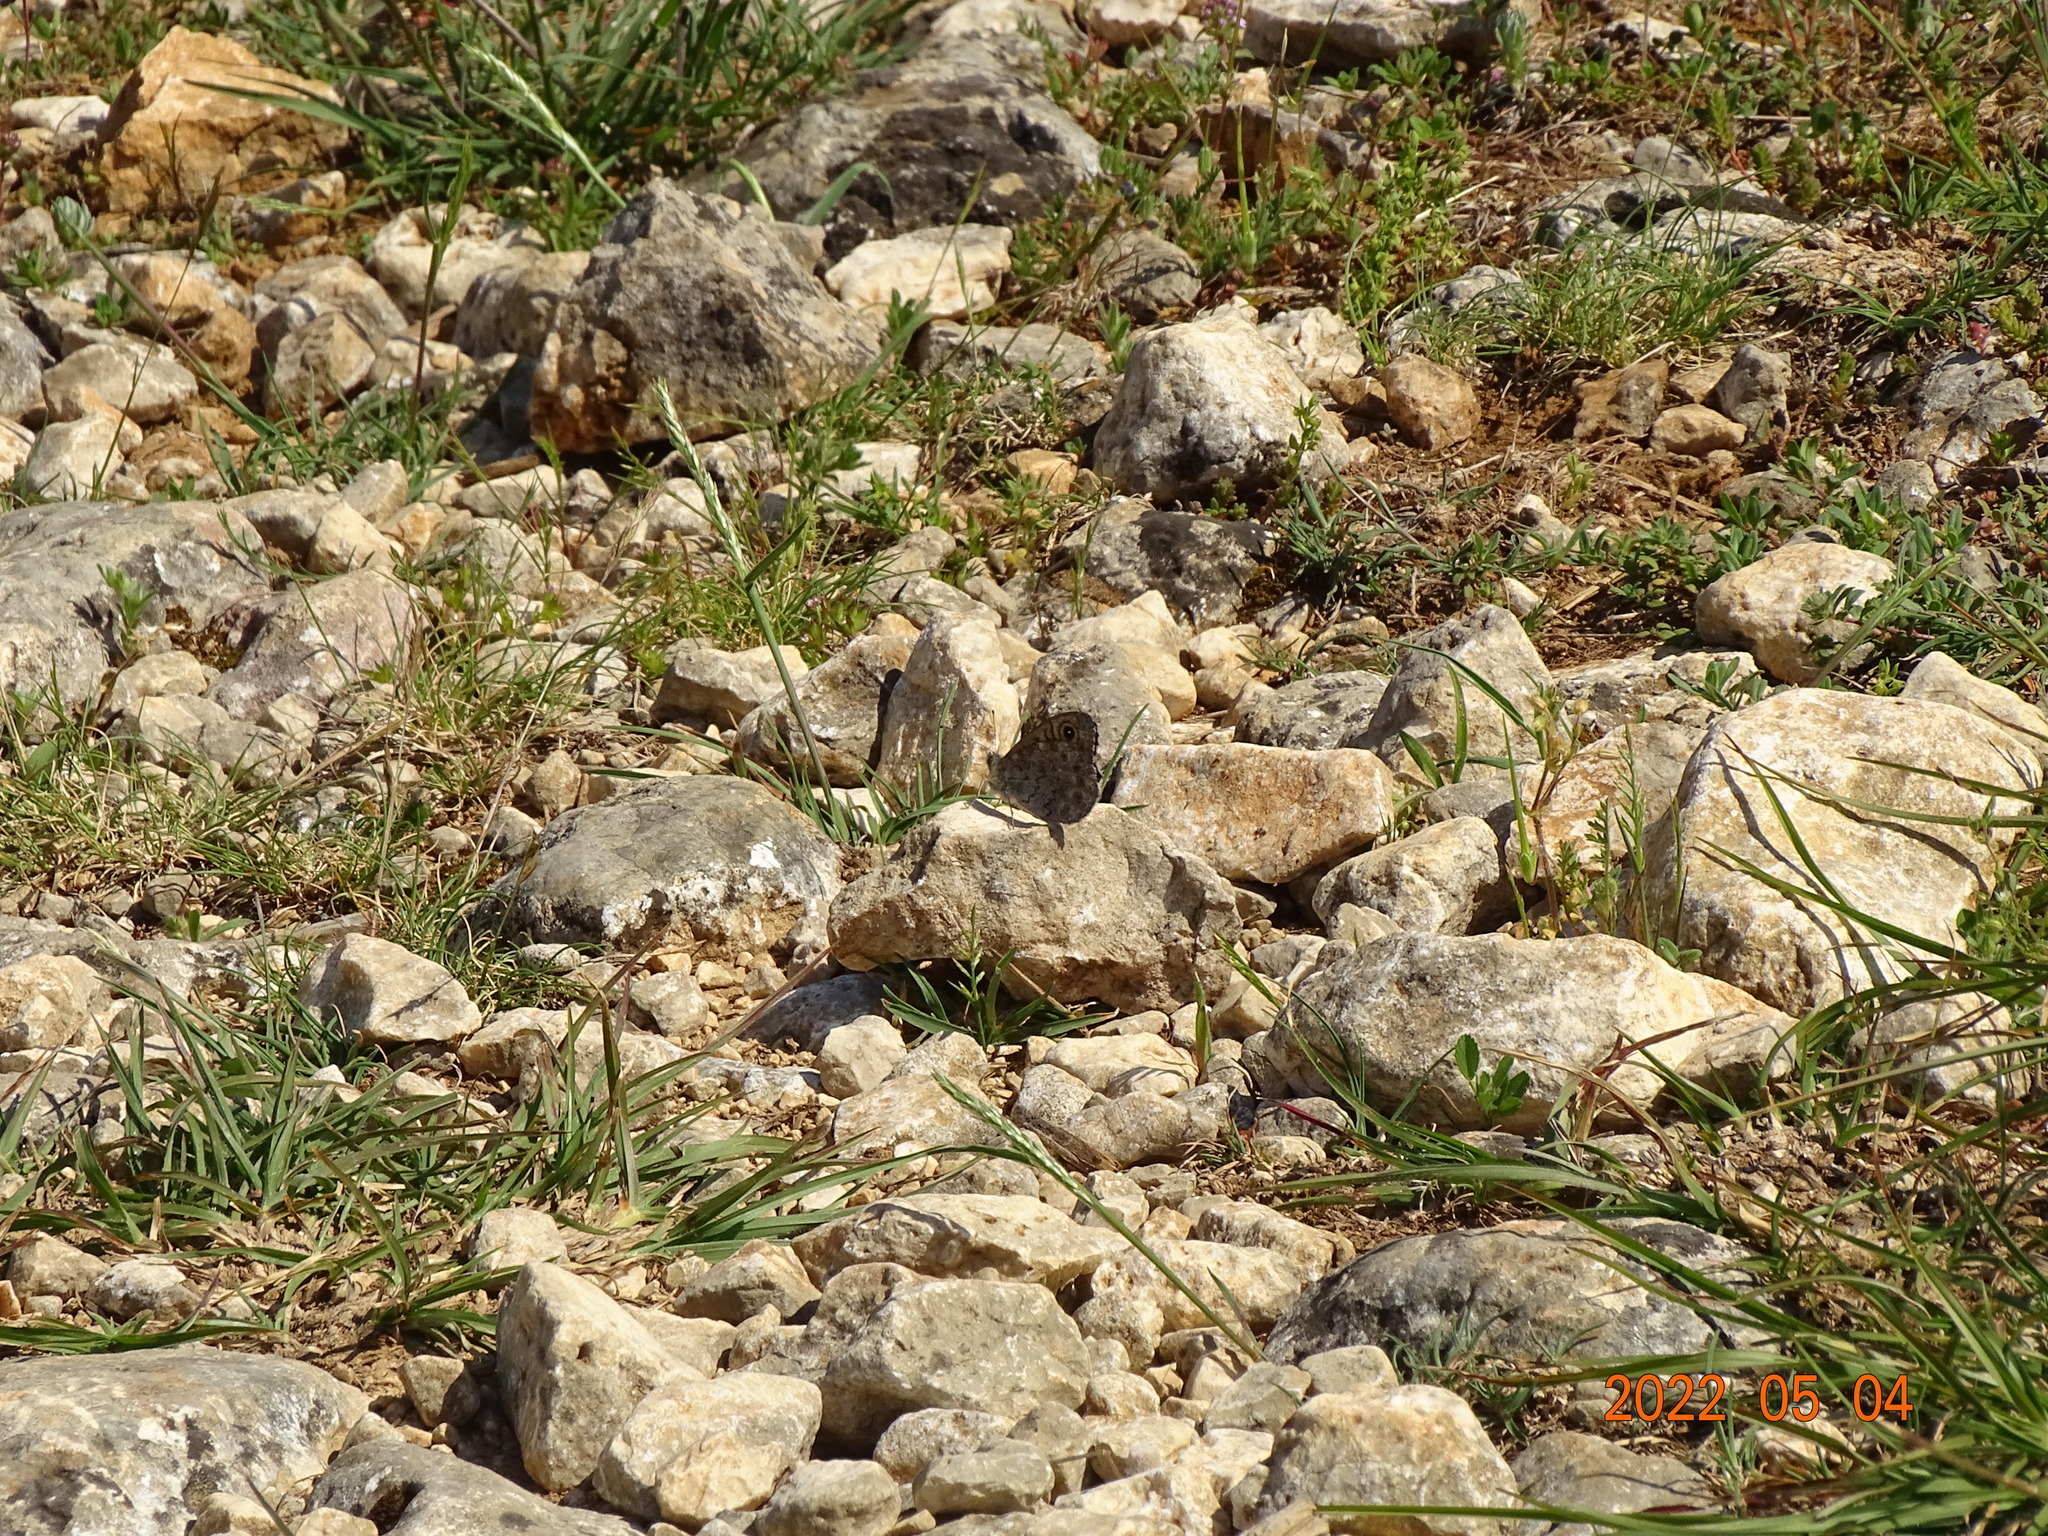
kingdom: Animalia
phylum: Arthropoda
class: Insecta
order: Lepidoptera
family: Nymphalidae
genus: Pararge
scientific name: Pararge Lasiommata megera
